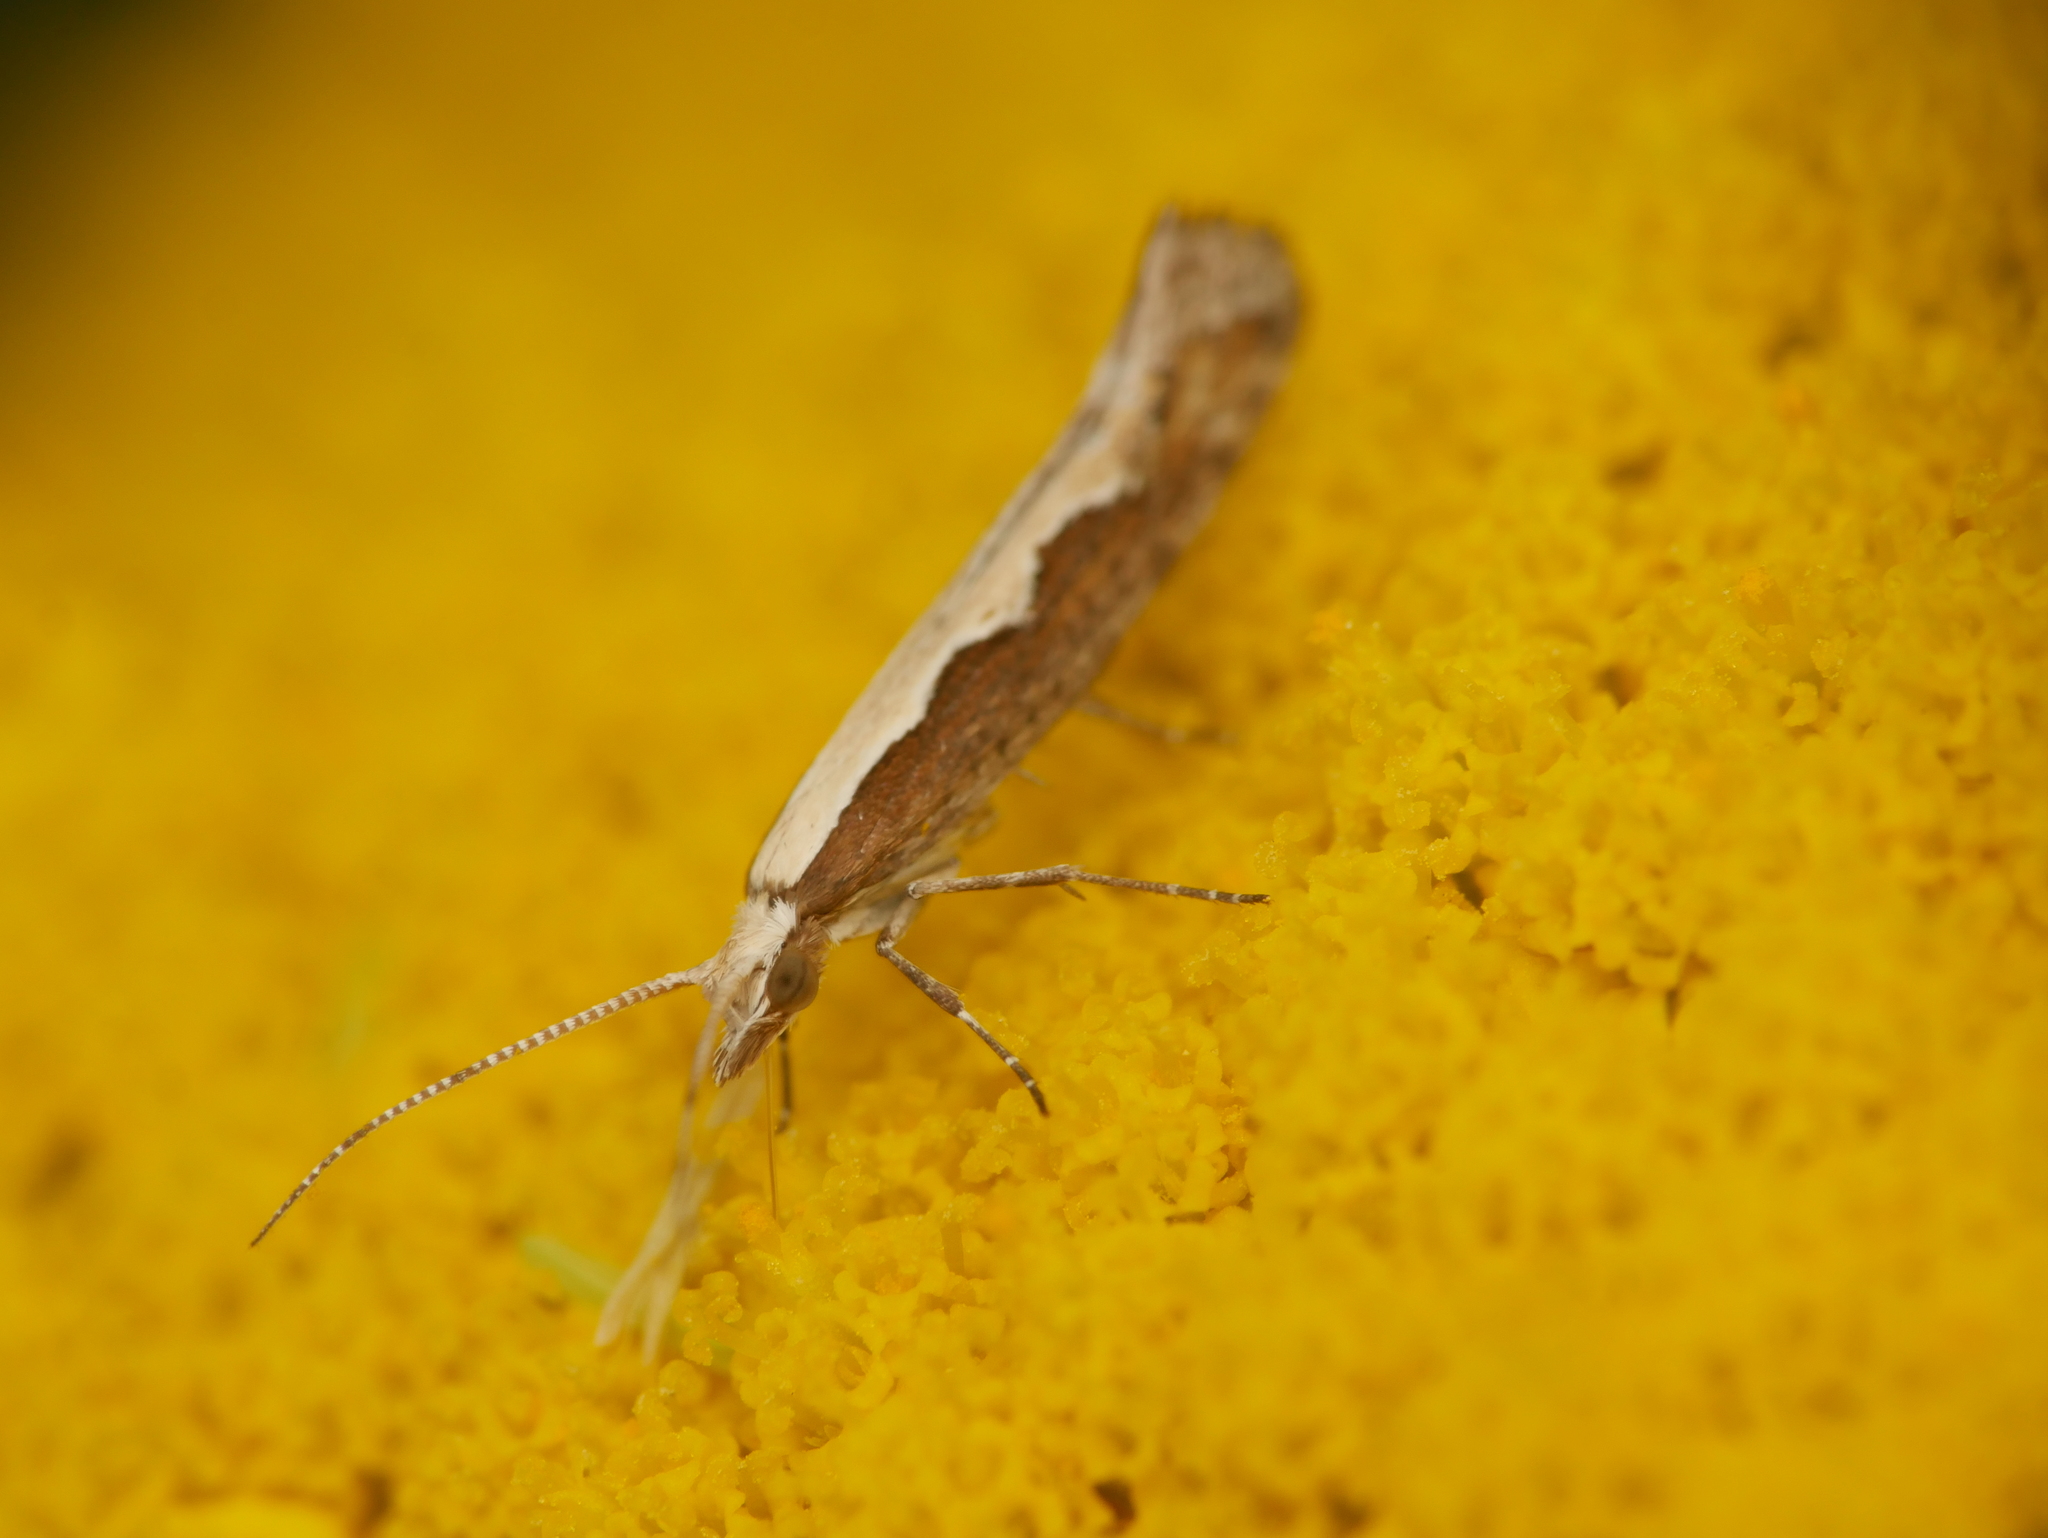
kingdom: Animalia
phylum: Arthropoda
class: Insecta
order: Lepidoptera
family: Plutellidae
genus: Plutella
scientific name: Plutella xylostella
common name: Diamond-back moth
